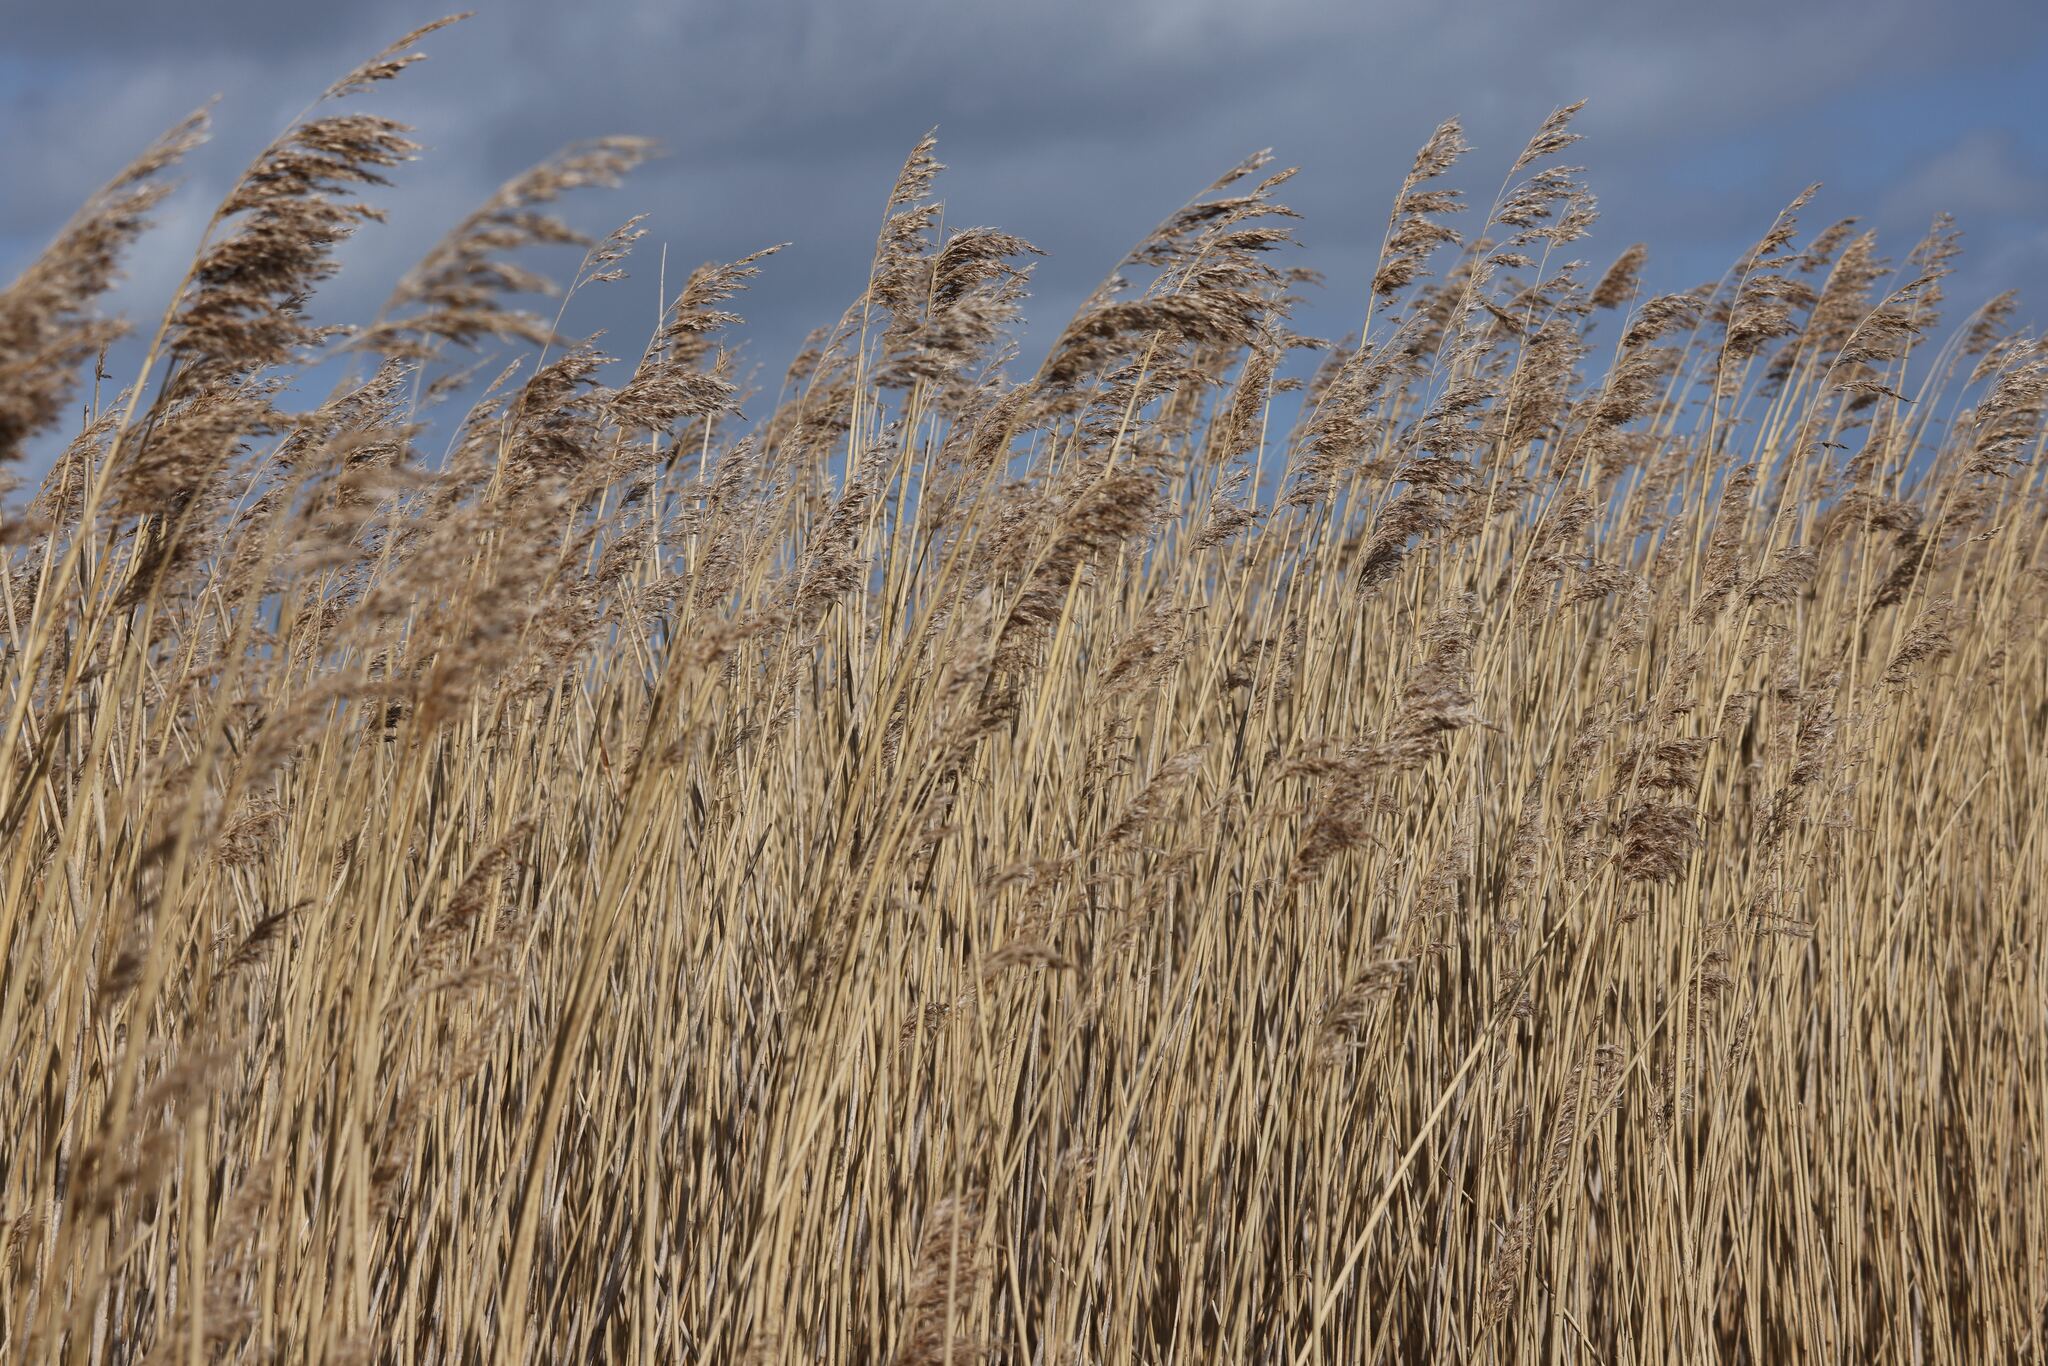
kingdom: Plantae
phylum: Tracheophyta
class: Liliopsida
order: Poales
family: Poaceae
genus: Phragmites
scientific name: Phragmites australis
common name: Common reed
